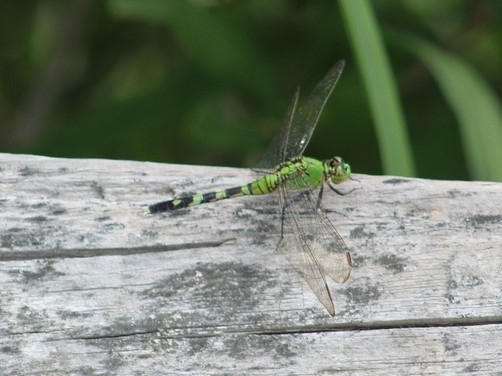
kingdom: Animalia
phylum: Arthropoda
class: Insecta
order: Odonata
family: Libellulidae
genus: Erythemis
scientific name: Erythemis simplicicollis
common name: Eastern pondhawk
